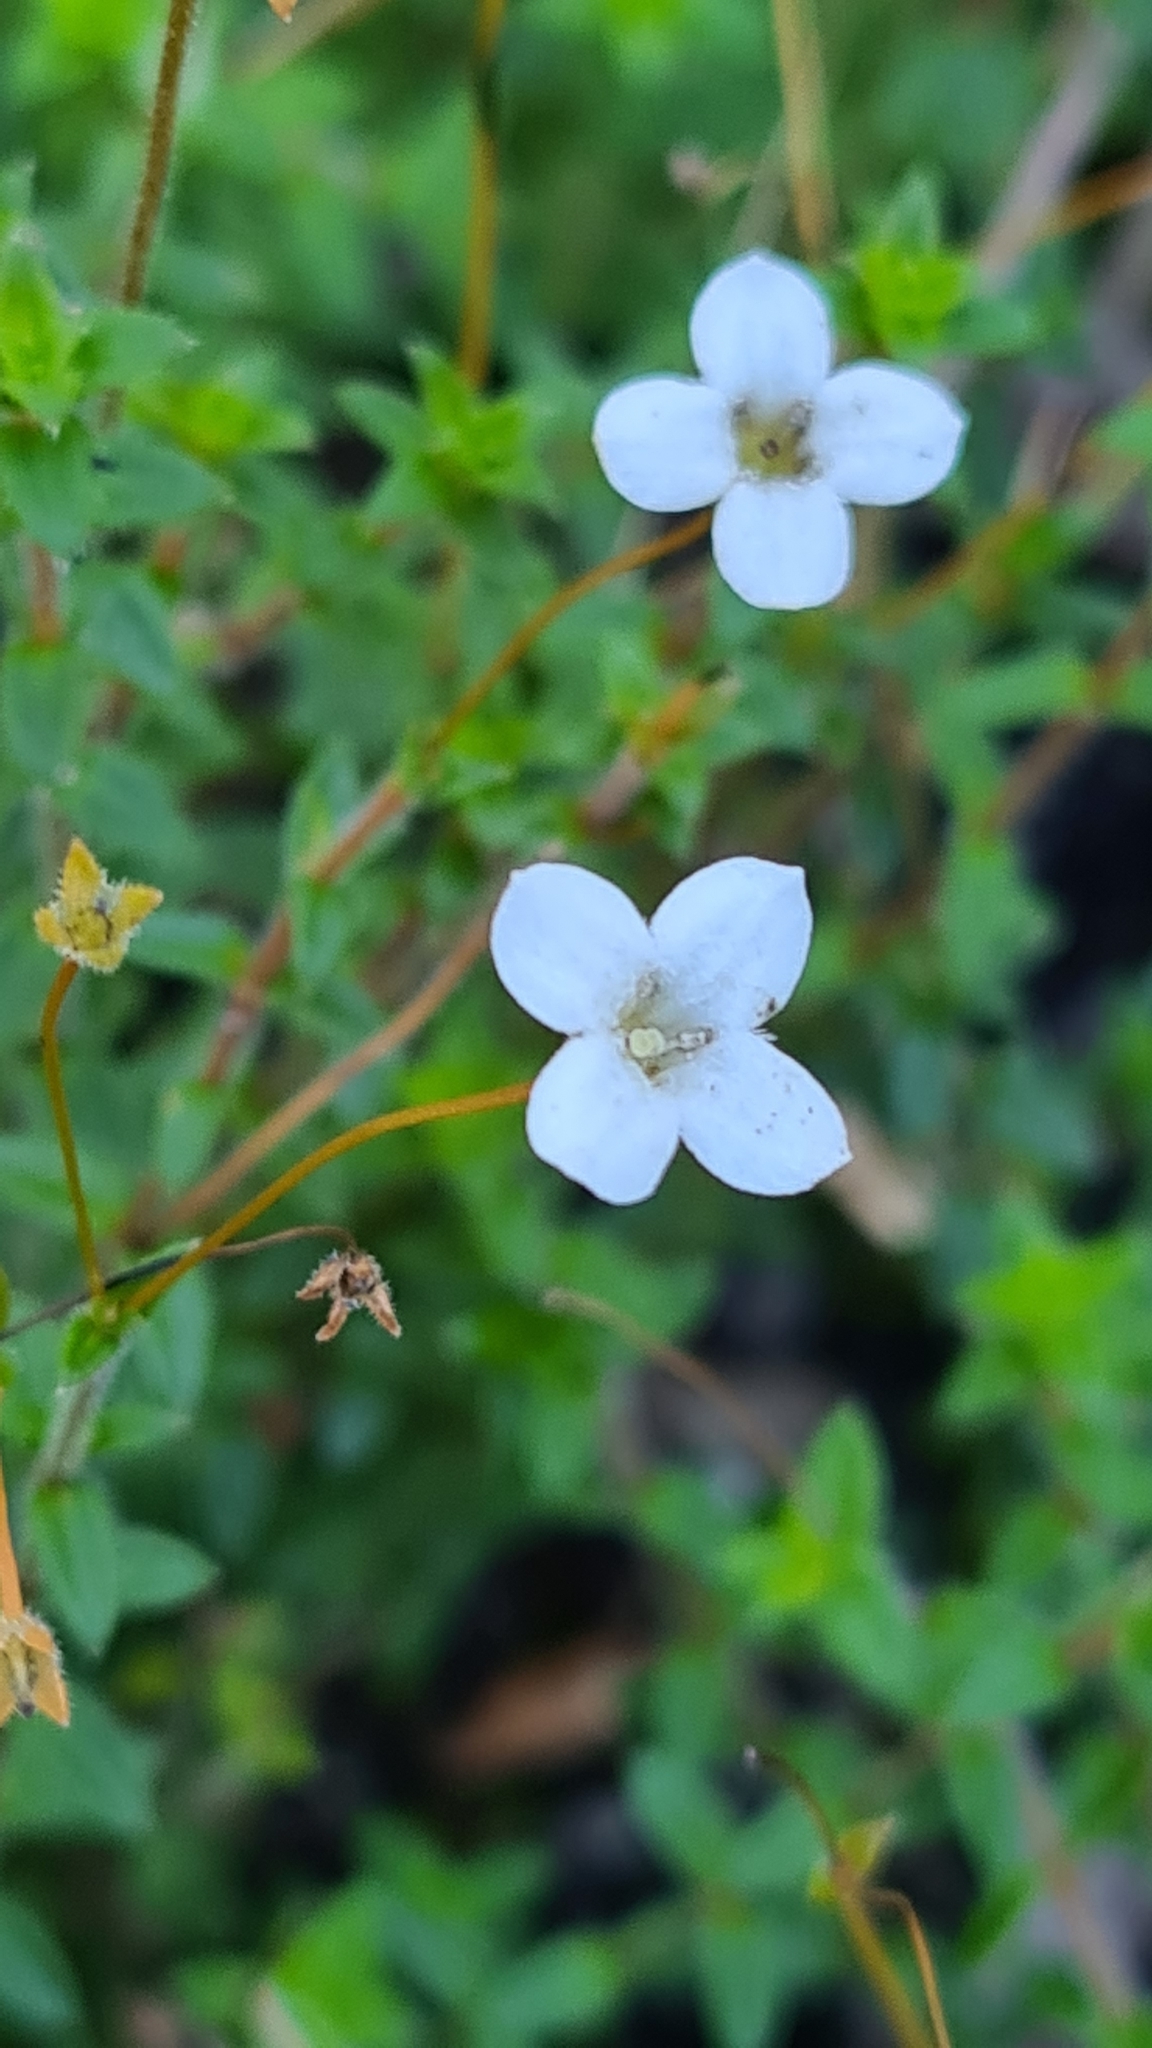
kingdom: Plantae
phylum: Tracheophyta
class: Magnoliopsida
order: Gentianales
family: Loganiaceae
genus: Mitrasacme
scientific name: Mitrasacme polymorpha
